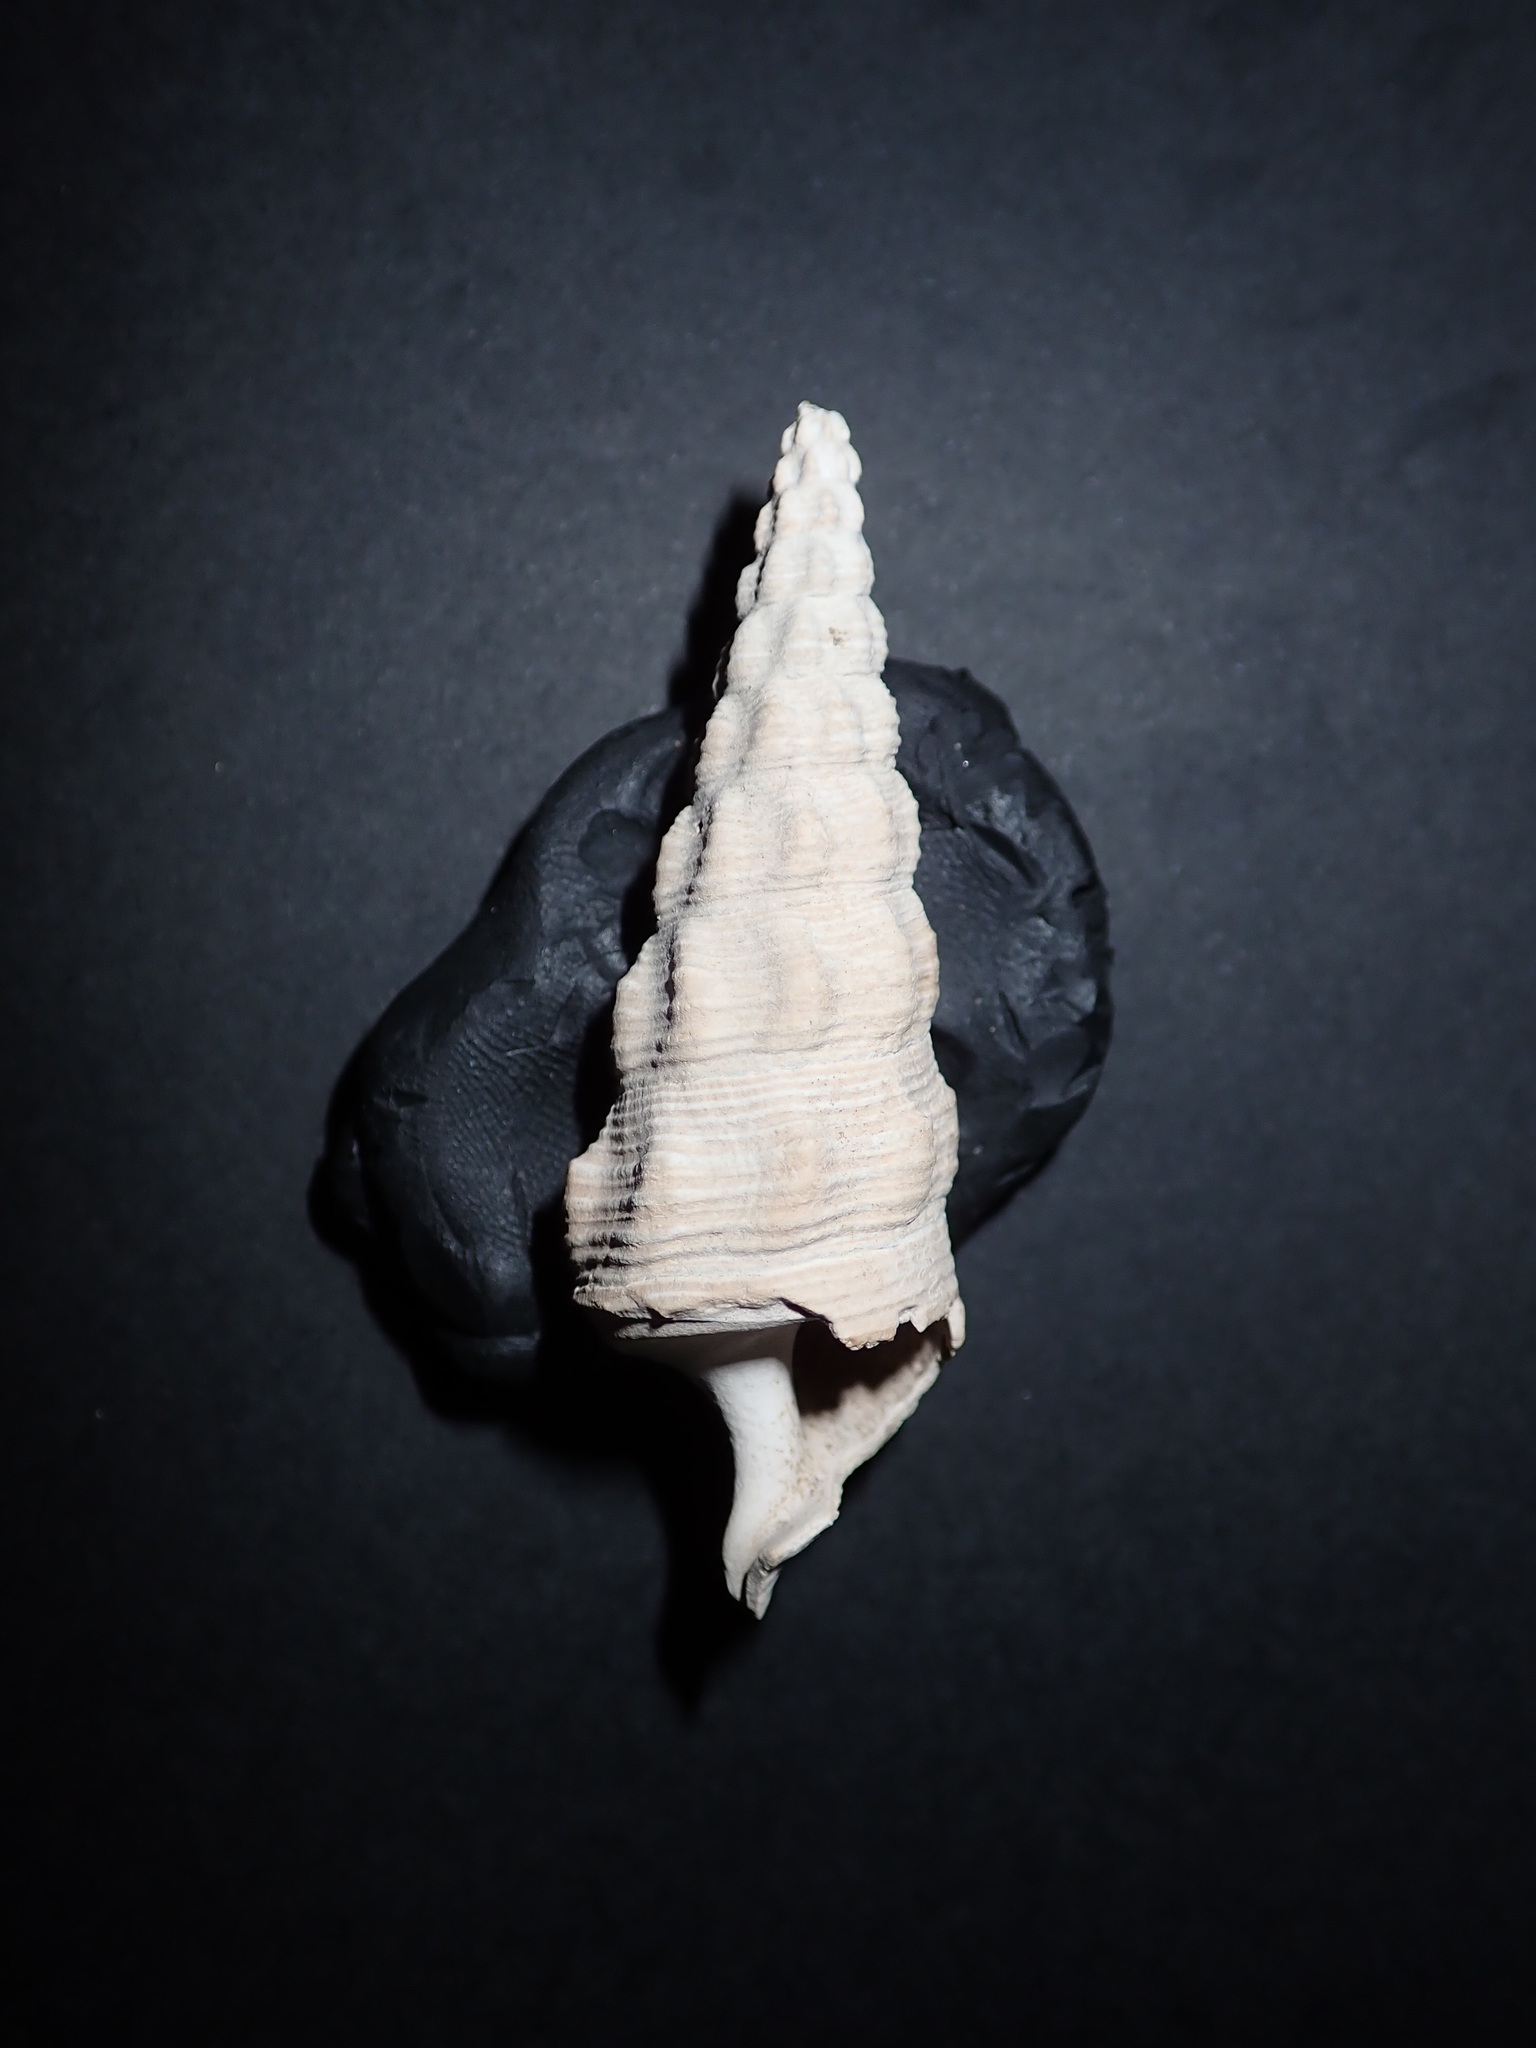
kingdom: Animalia
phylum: Mollusca
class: Gastropoda
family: Batillariidae
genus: Pyrazus
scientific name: Pyrazus ebeninus
